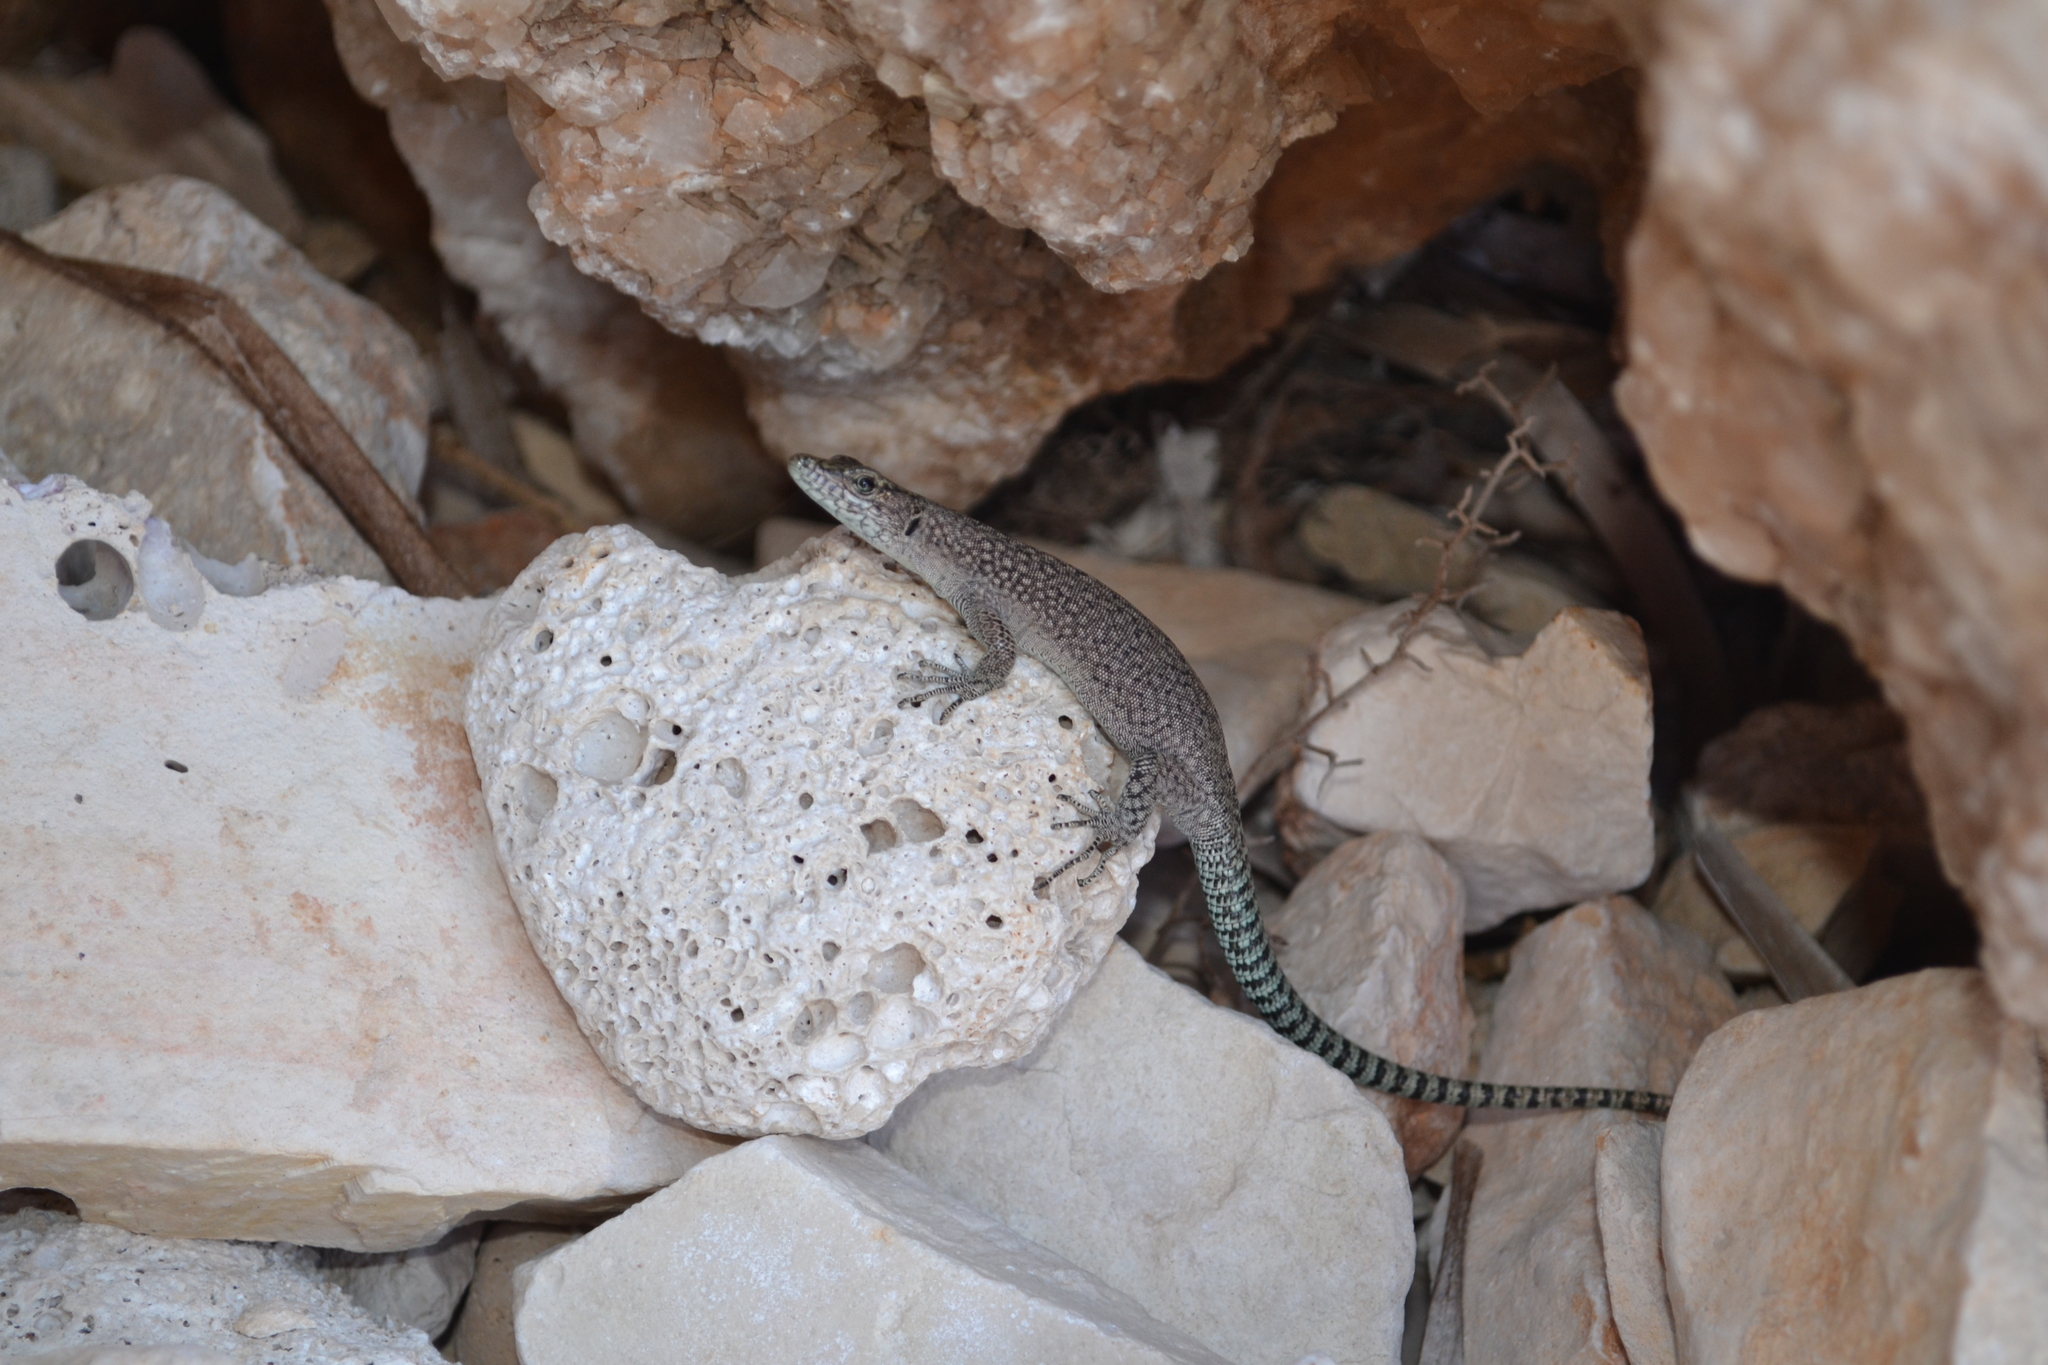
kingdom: Animalia
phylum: Chordata
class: Squamata
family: Lacertidae
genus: Dalmatolacerta
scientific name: Dalmatolacerta oxycephala
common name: Sharp-snouted rock lizard
